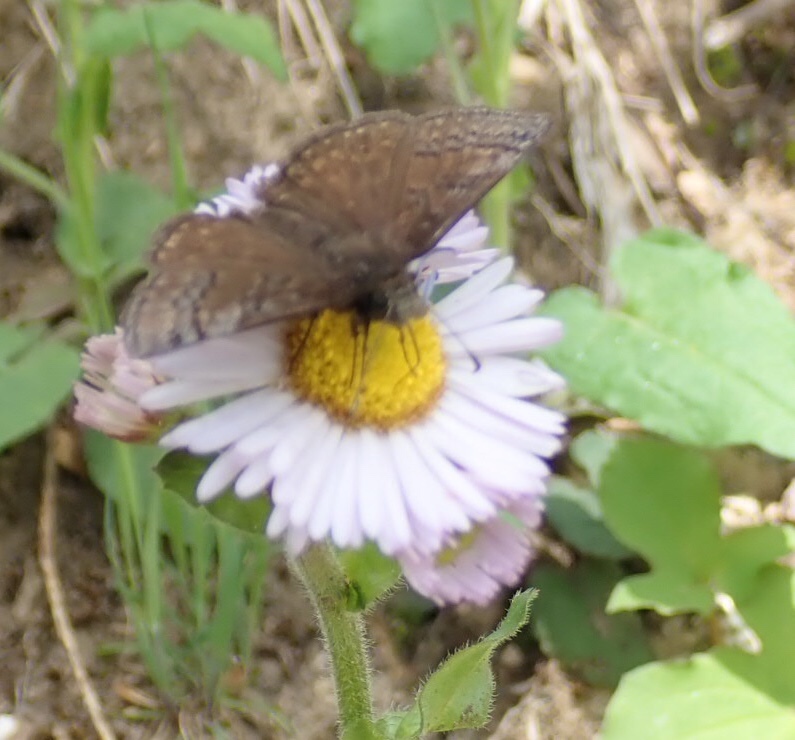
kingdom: Animalia
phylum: Arthropoda
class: Insecta
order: Lepidoptera
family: Hesperiidae
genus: Erynnis
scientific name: Erynnis brizo
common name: Sleepy duskywing
